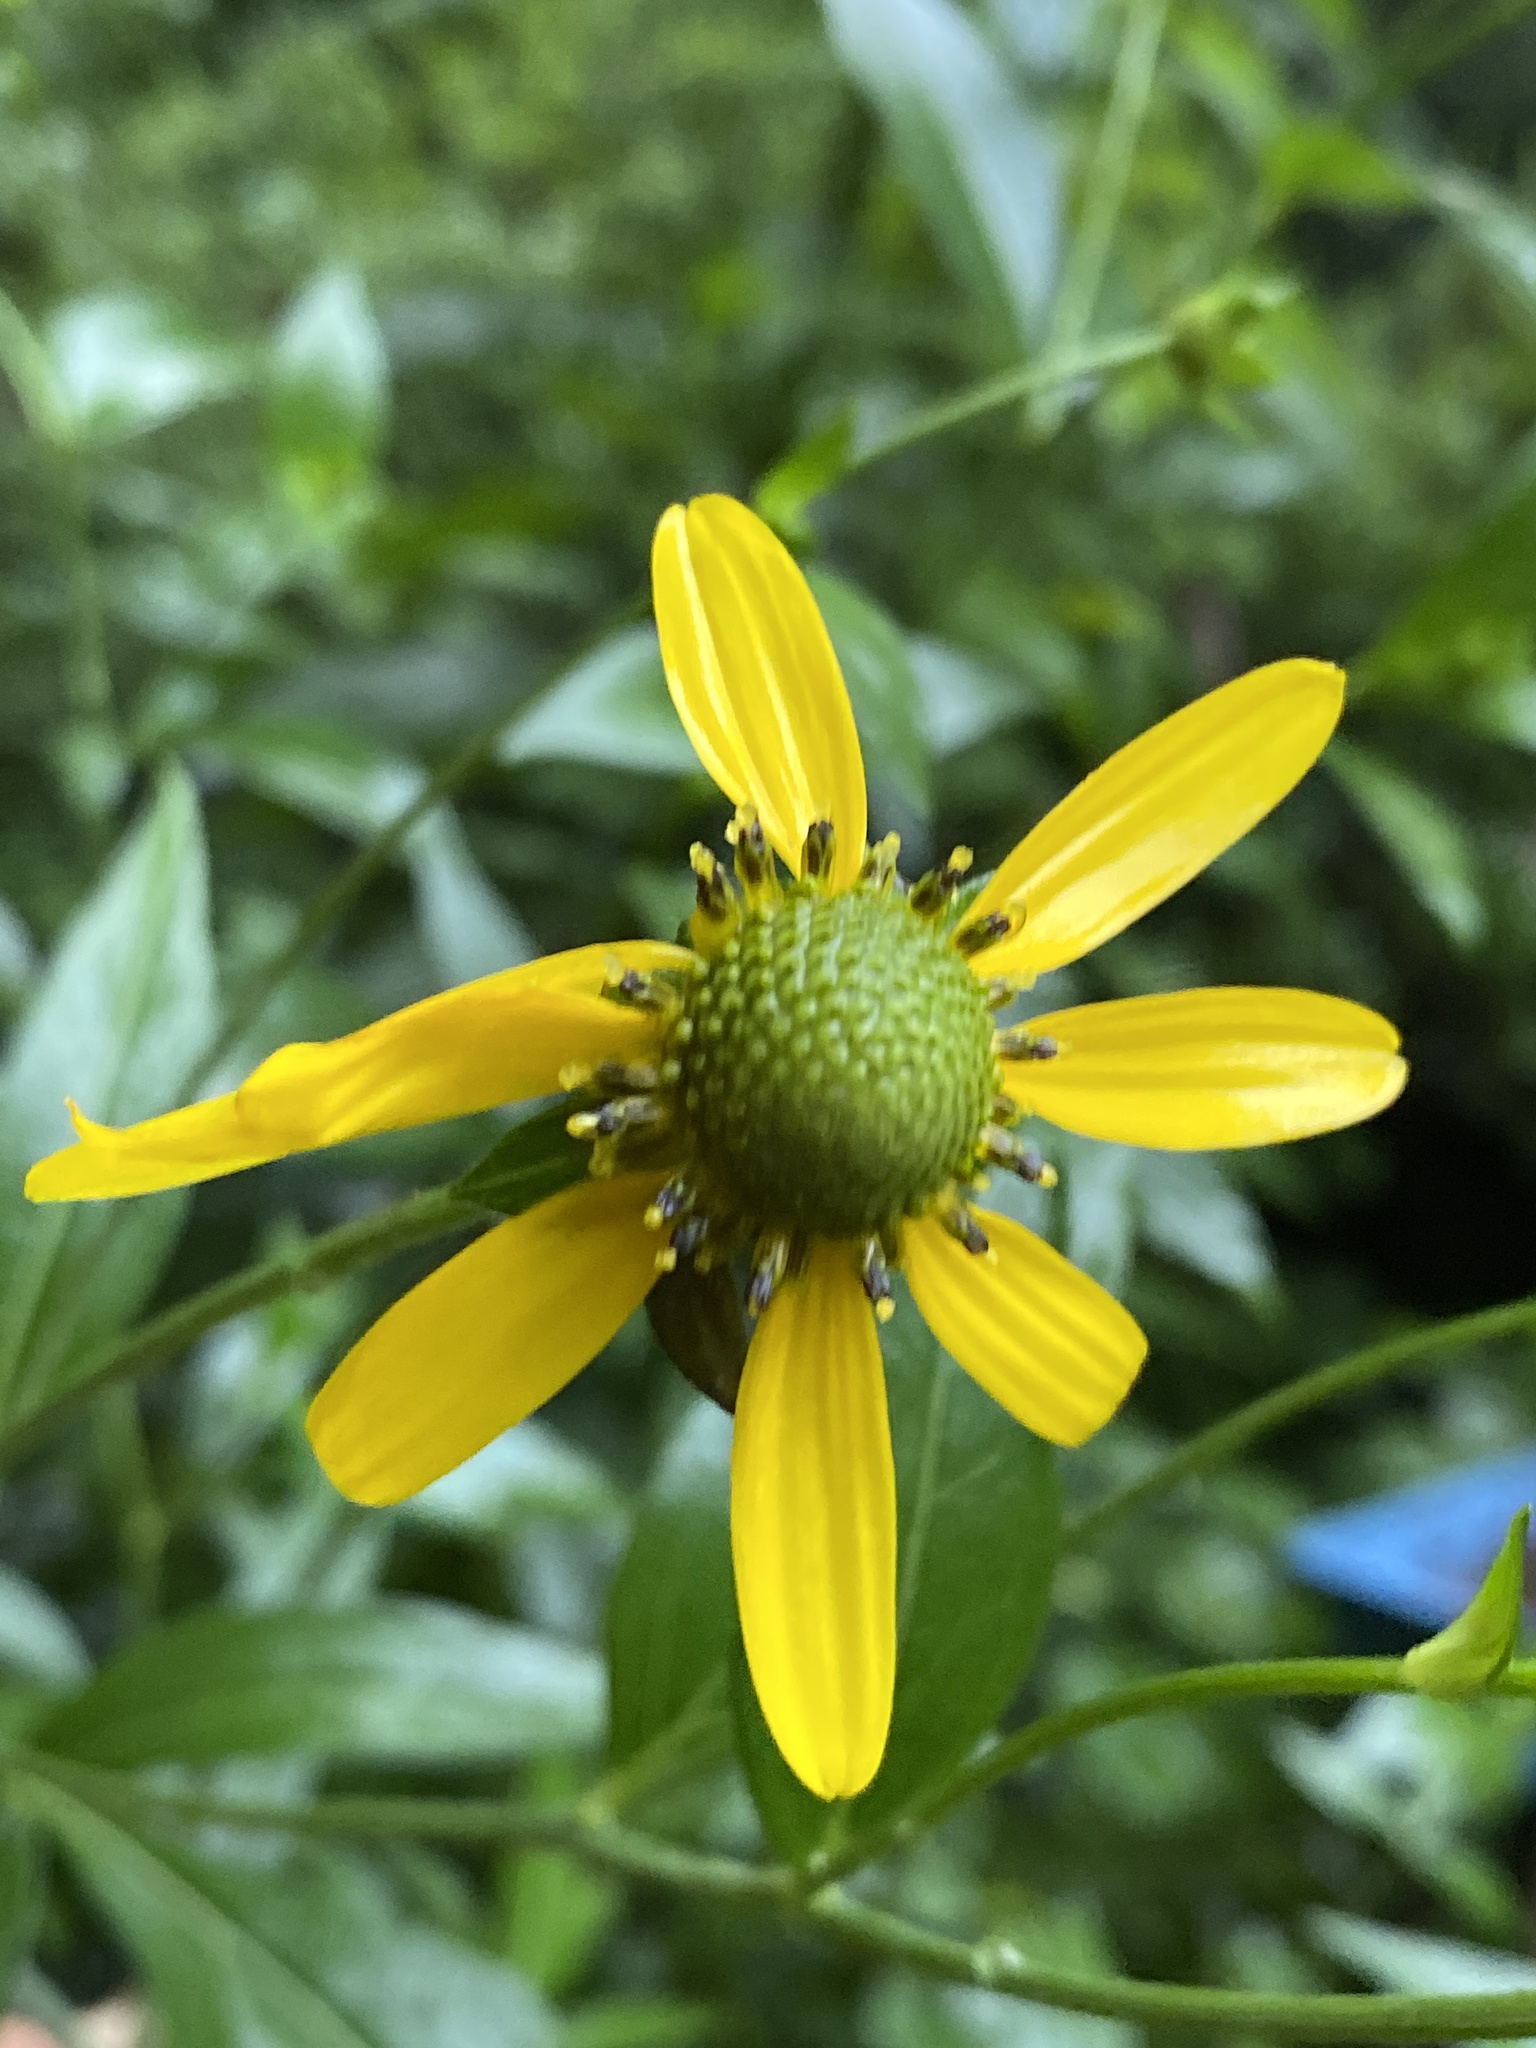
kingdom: Plantae
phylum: Tracheophyta
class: Magnoliopsida
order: Asterales
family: Asteraceae
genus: Rudbeckia
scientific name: Rudbeckia laciniata
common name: Coneflower
